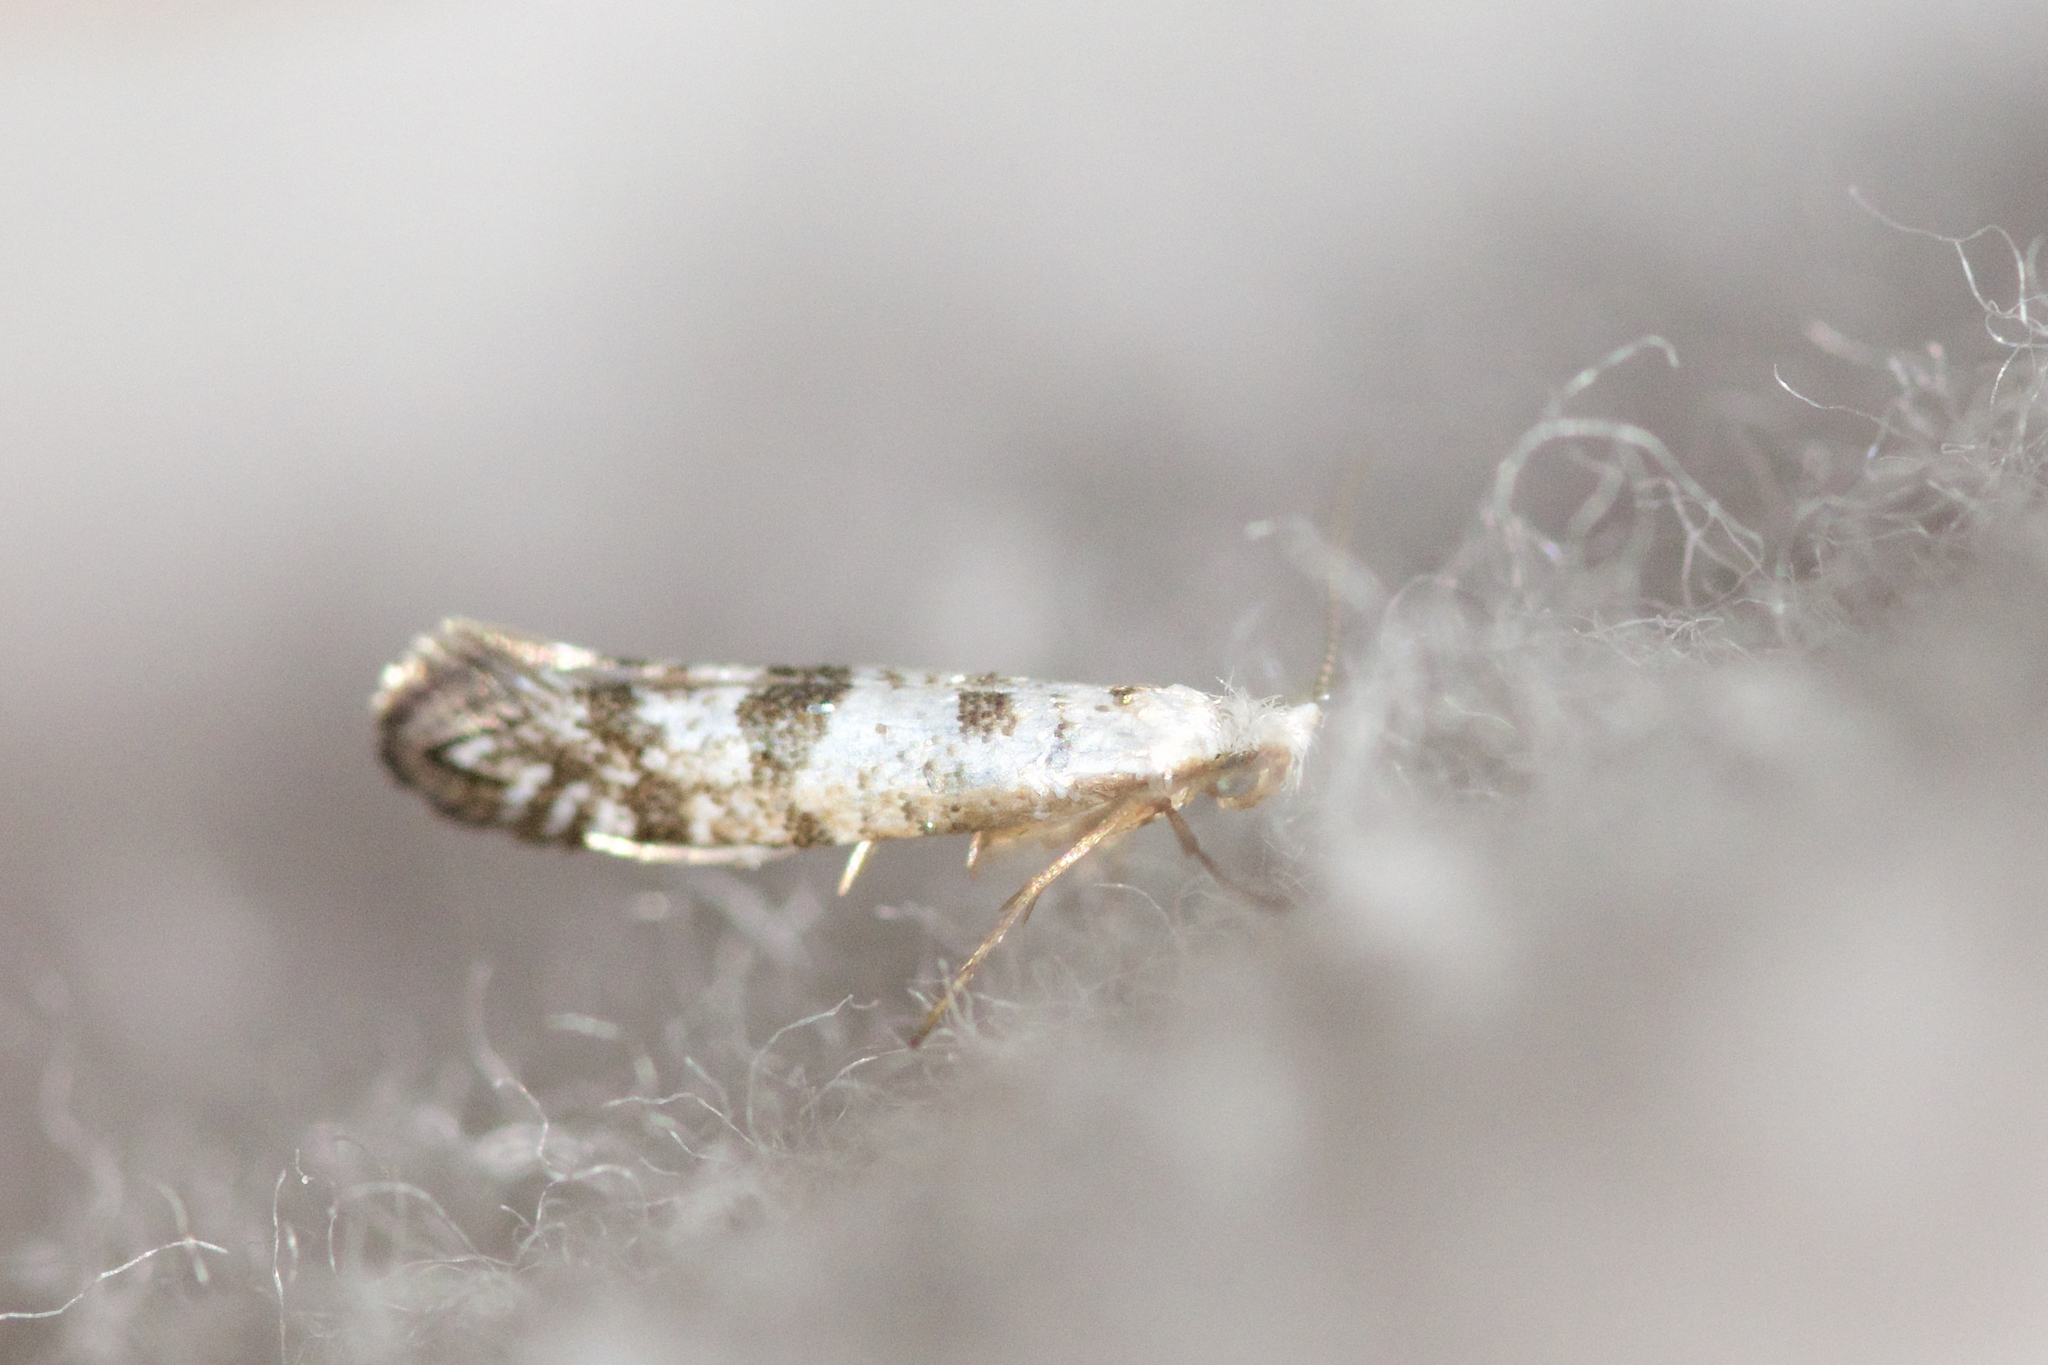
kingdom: Animalia
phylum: Arthropoda
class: Insecta
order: Lepidoptera
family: Argyresthiidae
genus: Argyresthia
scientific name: Argyresthia thuiella
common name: Arborvitae leafminer
